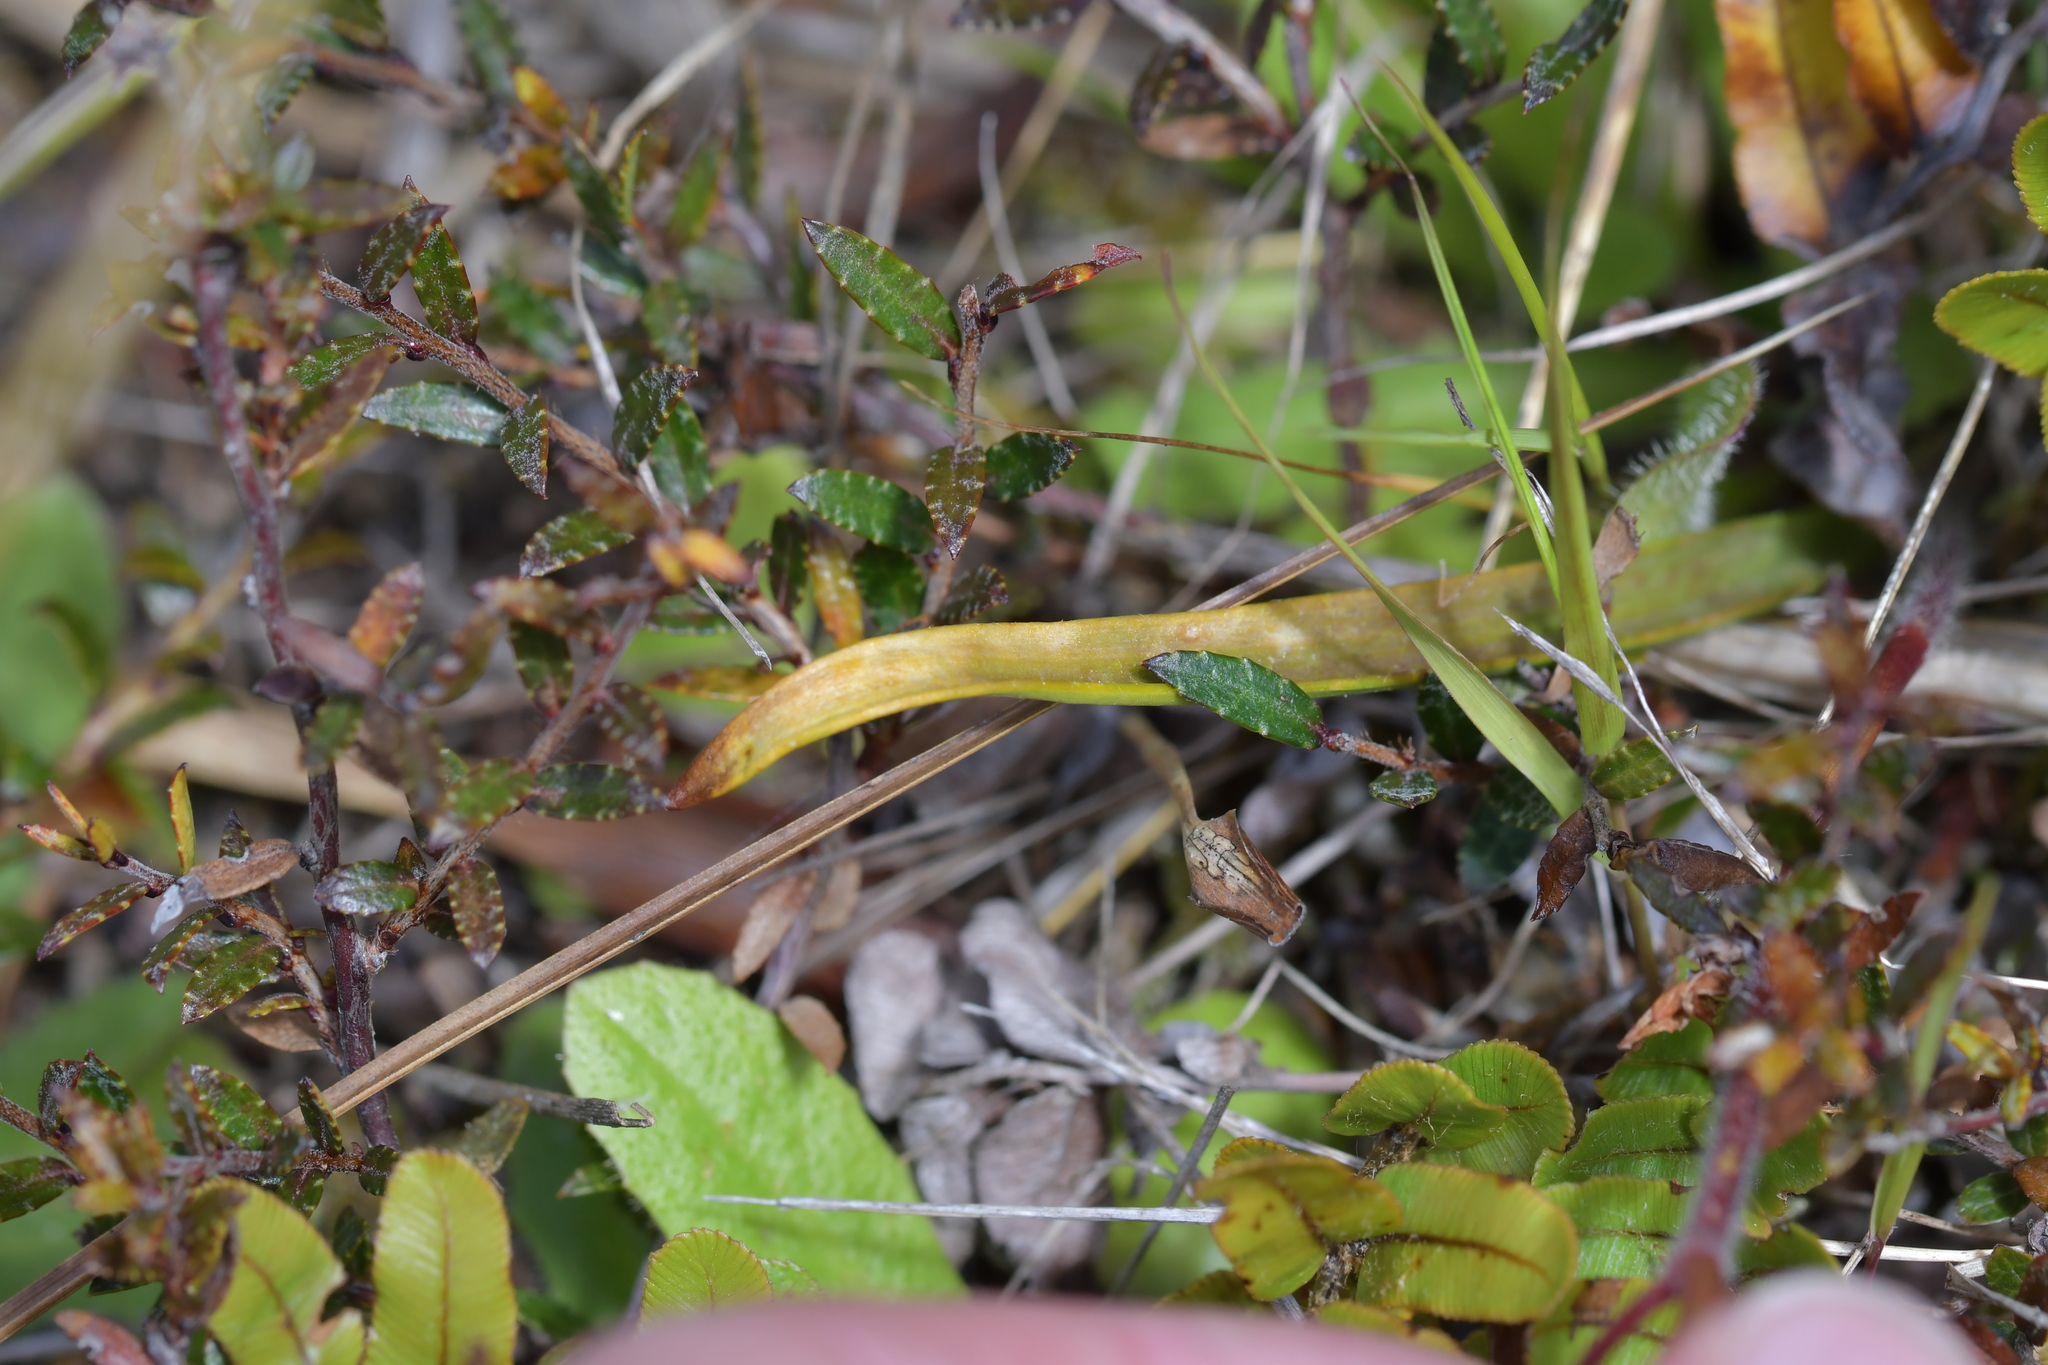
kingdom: Plantae
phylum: Tracheophyta
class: Magnoliopsida
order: Ericales
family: Ericaceae
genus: Gaultheria
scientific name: Gaultheria macrostigma
